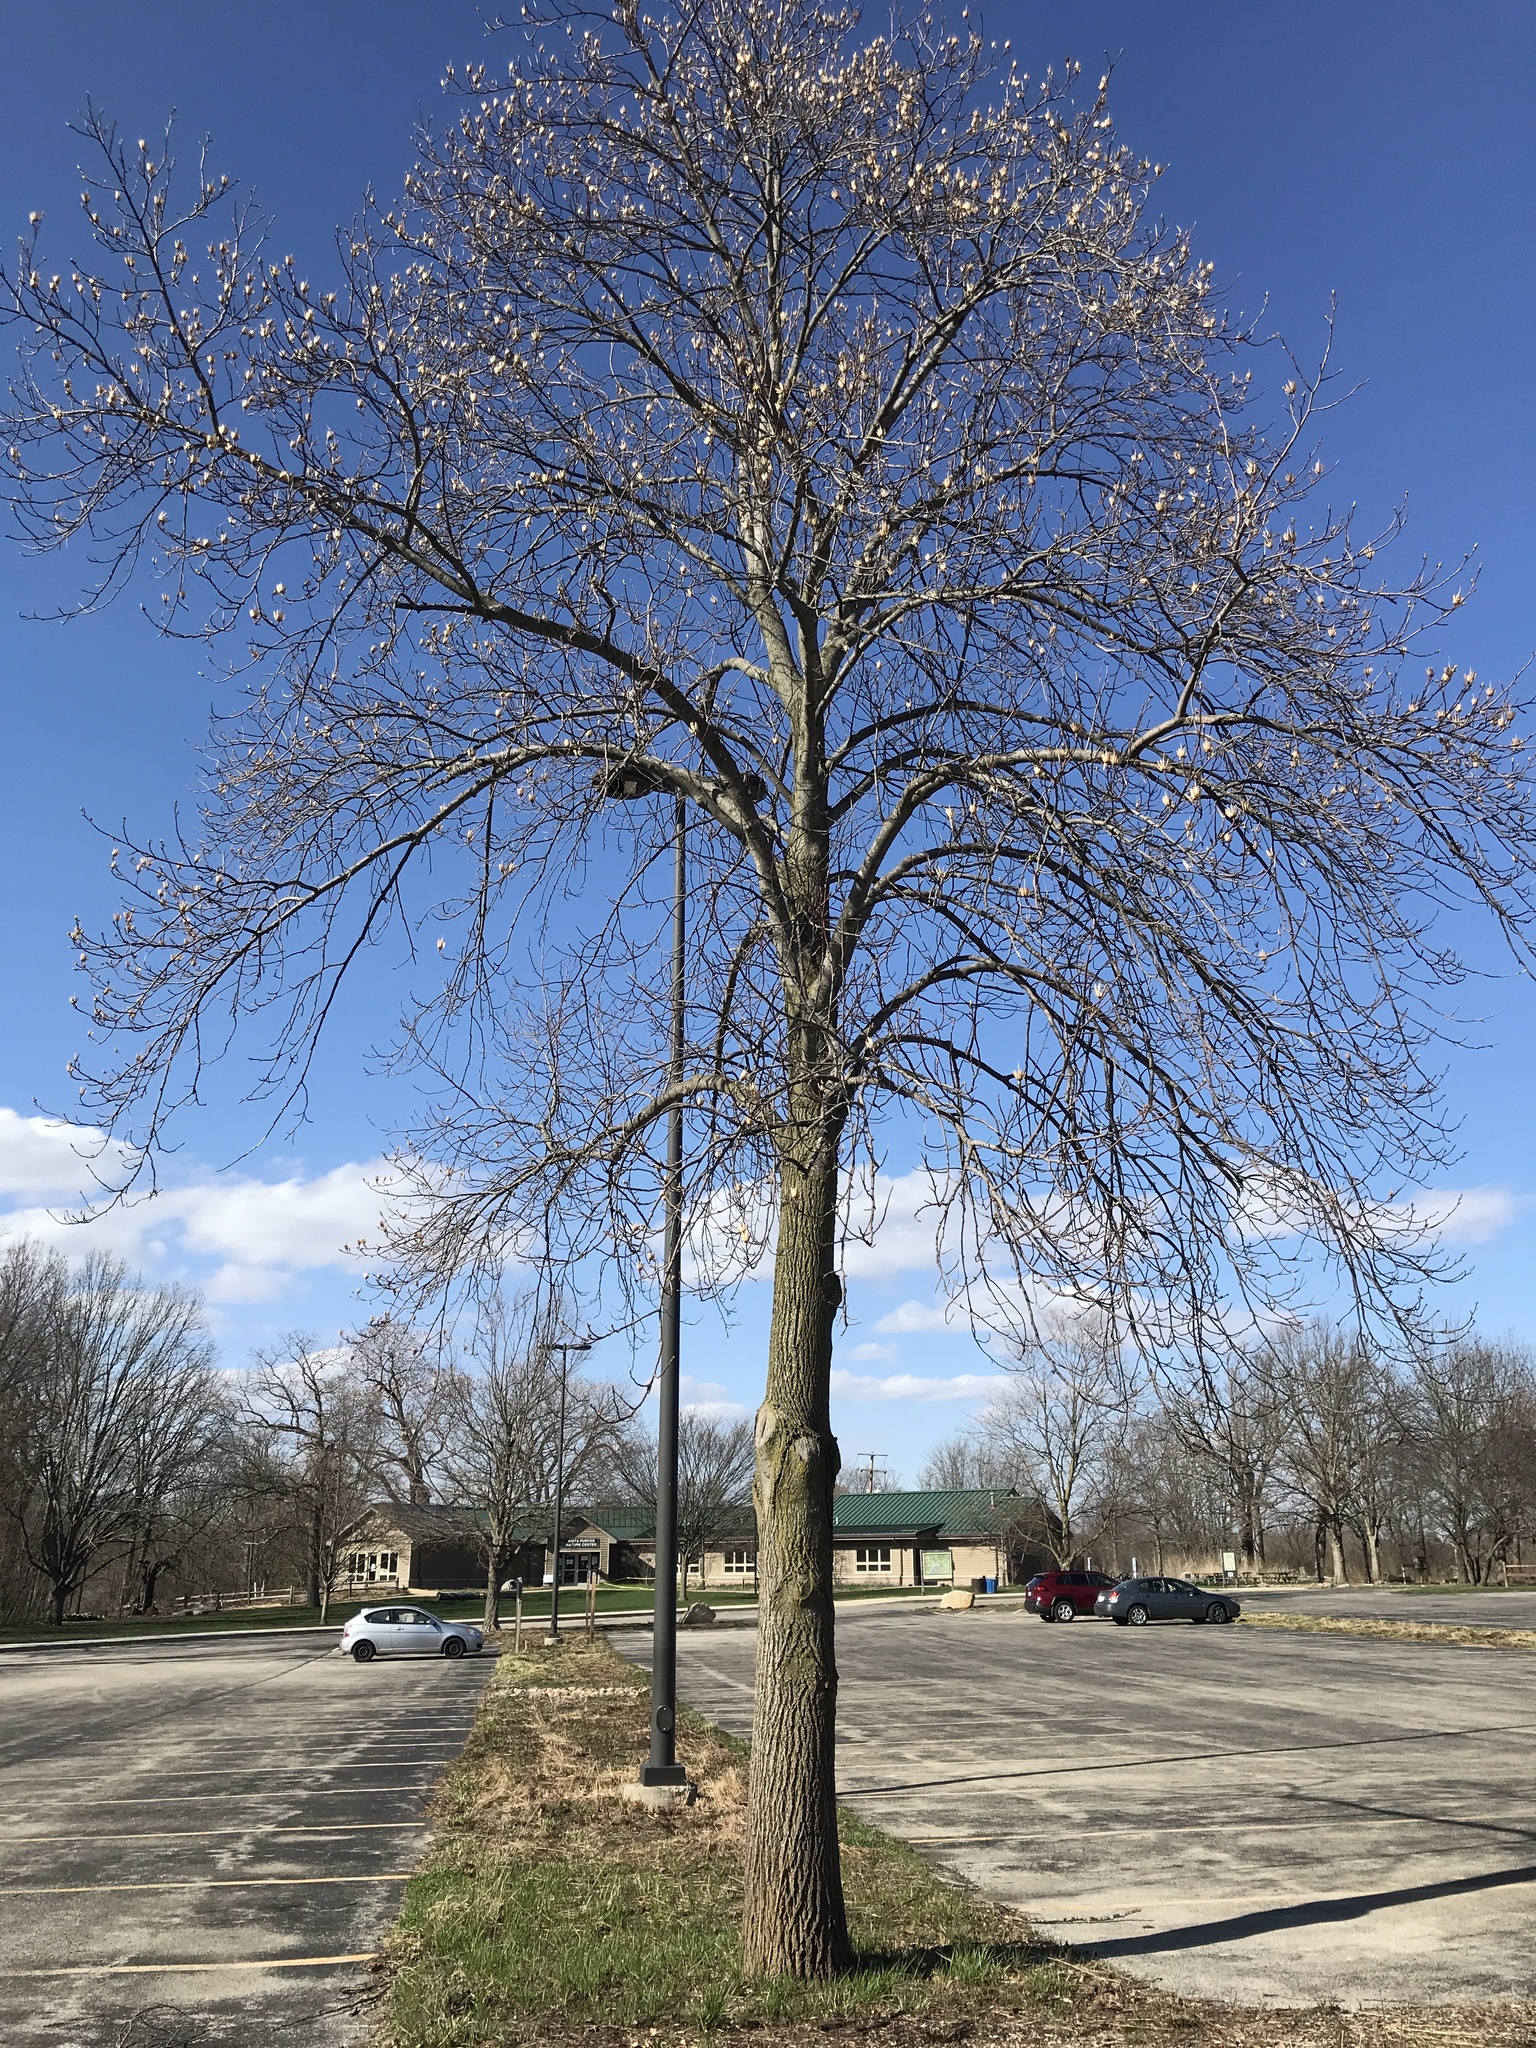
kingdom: Plantae
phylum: Tracheophyta
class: Magnoliopsida
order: Magnoliales
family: Magnoliaceae
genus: Liriodendron
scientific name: Liriodendron tulipifera
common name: Tulip tree
